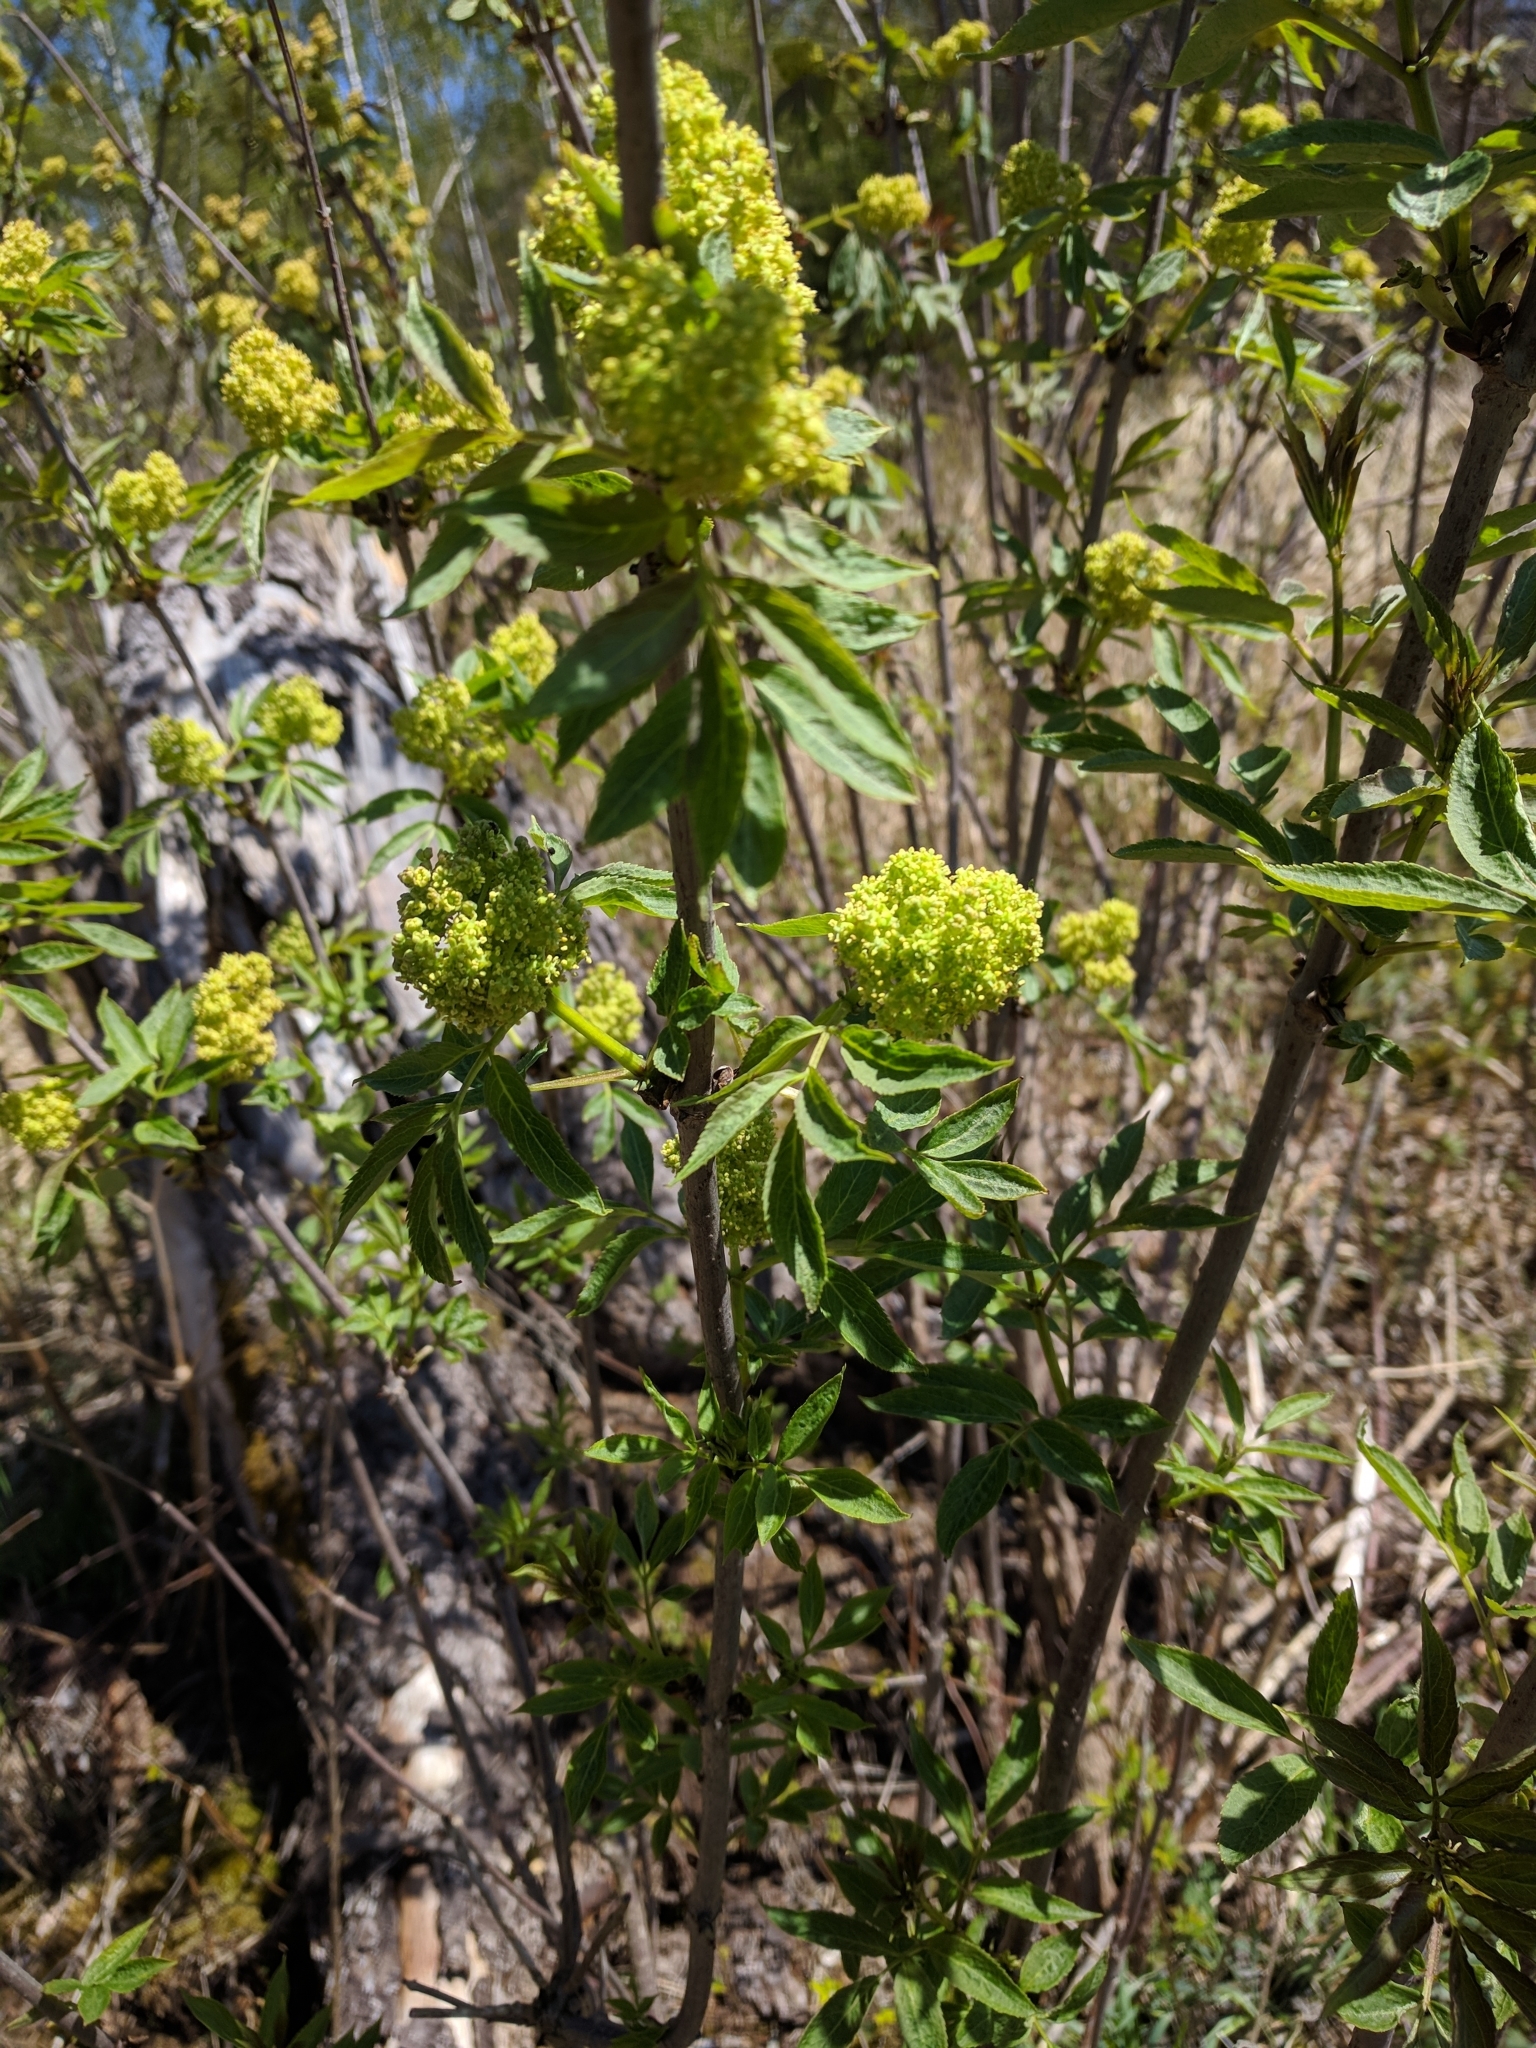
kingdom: Plantae
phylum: Tracheophyta
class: Magnoliopsida
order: Dipsacales
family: Viburnaceae
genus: Sambucus
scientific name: Sambucus racemosa
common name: Red-berried elder
